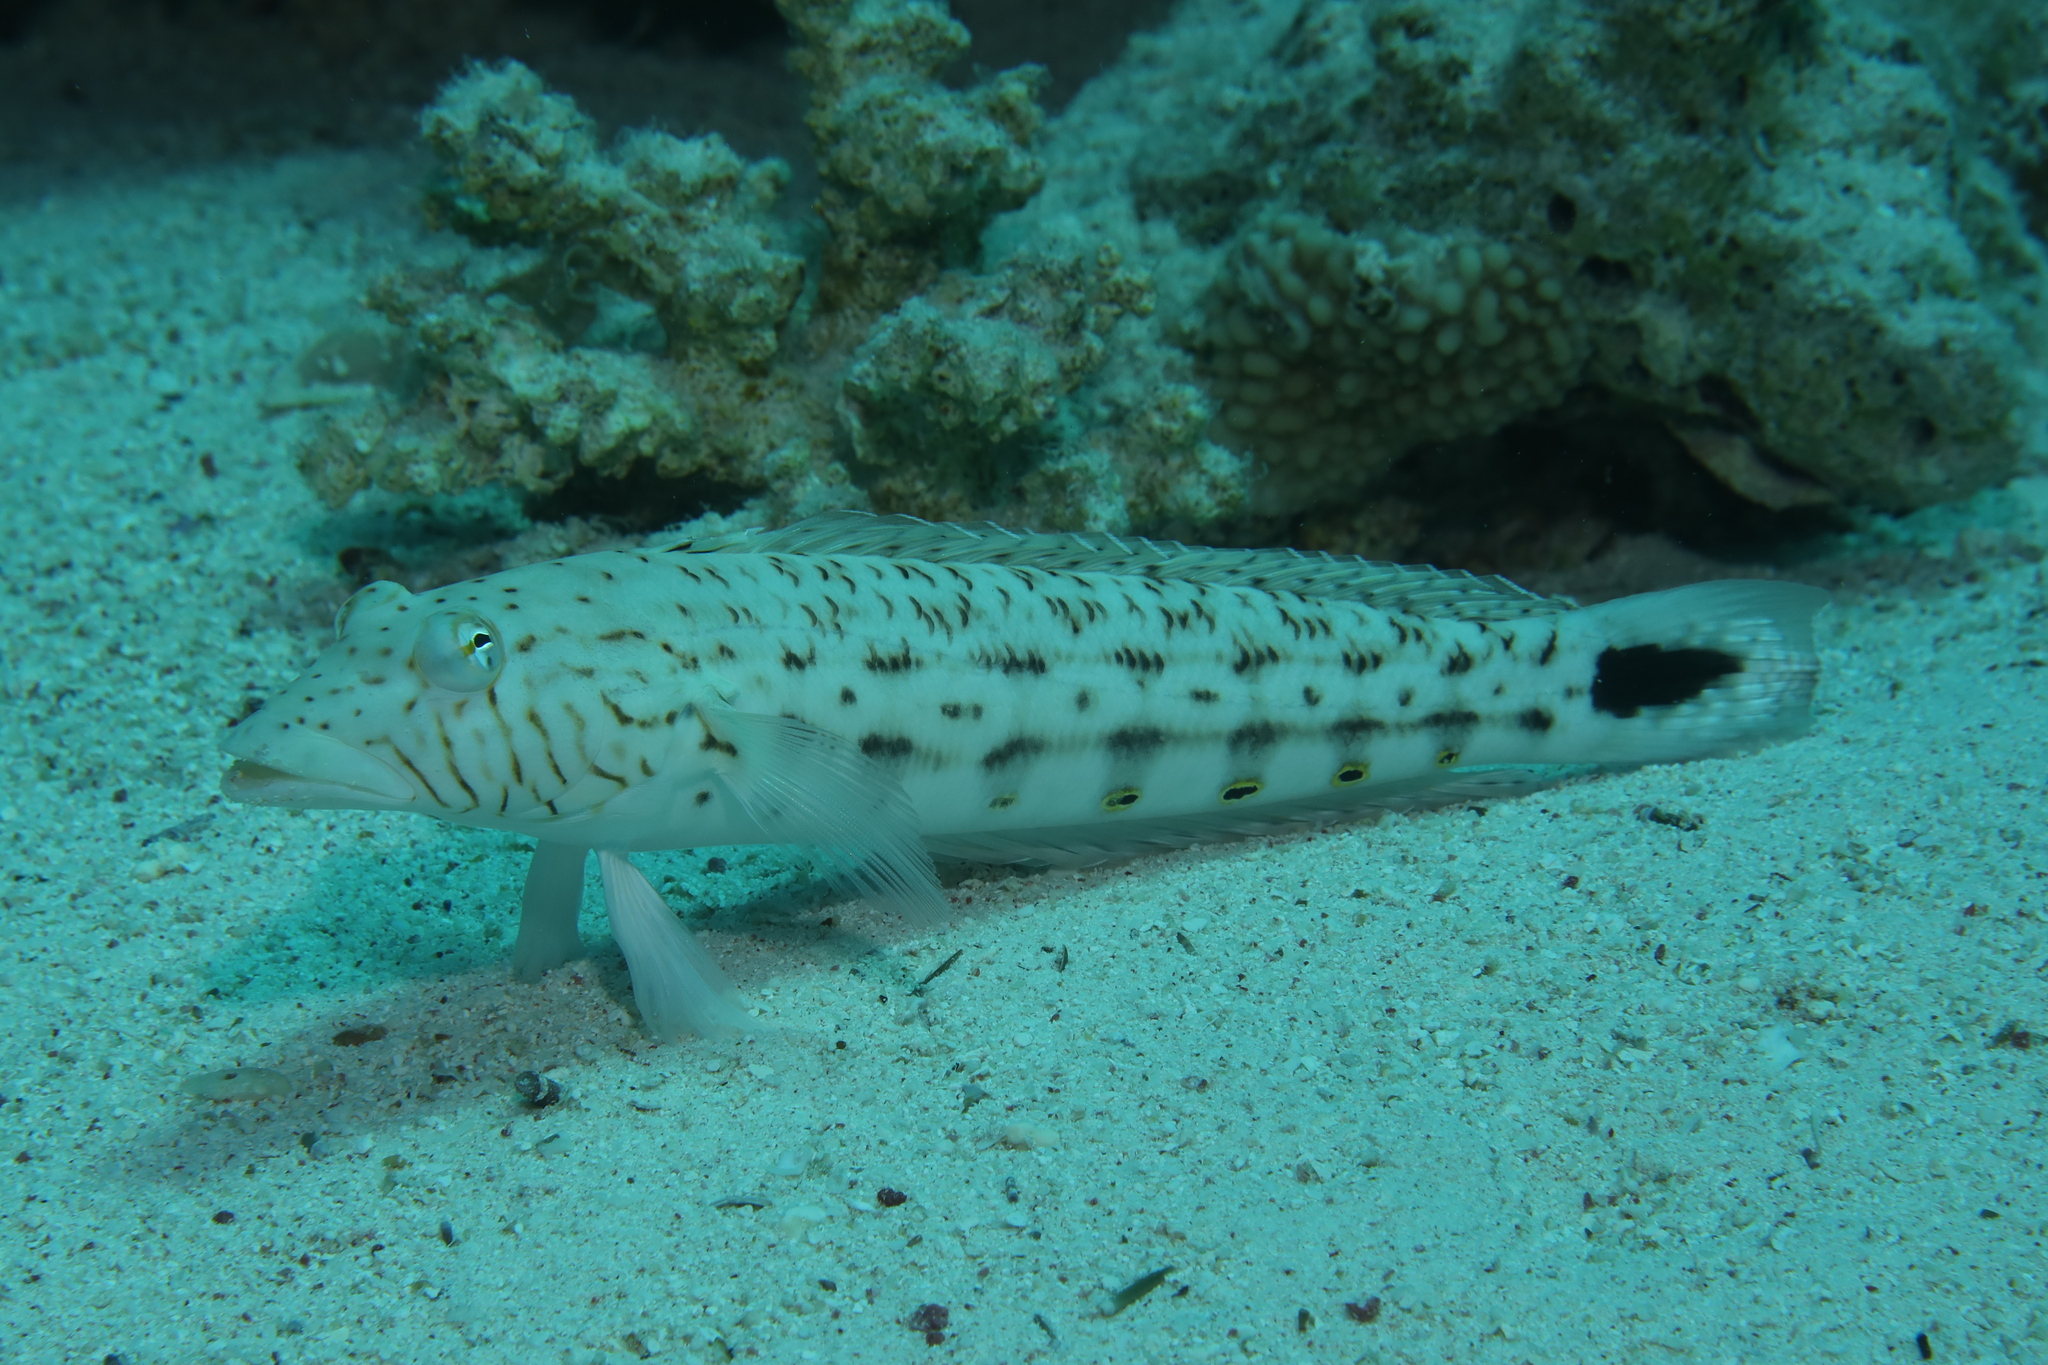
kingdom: Animalia
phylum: Chordata
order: Perciformes
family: Pinguipedidae
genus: Parapercis
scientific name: Parapercis hexophtalma
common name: Speckled sandperch
